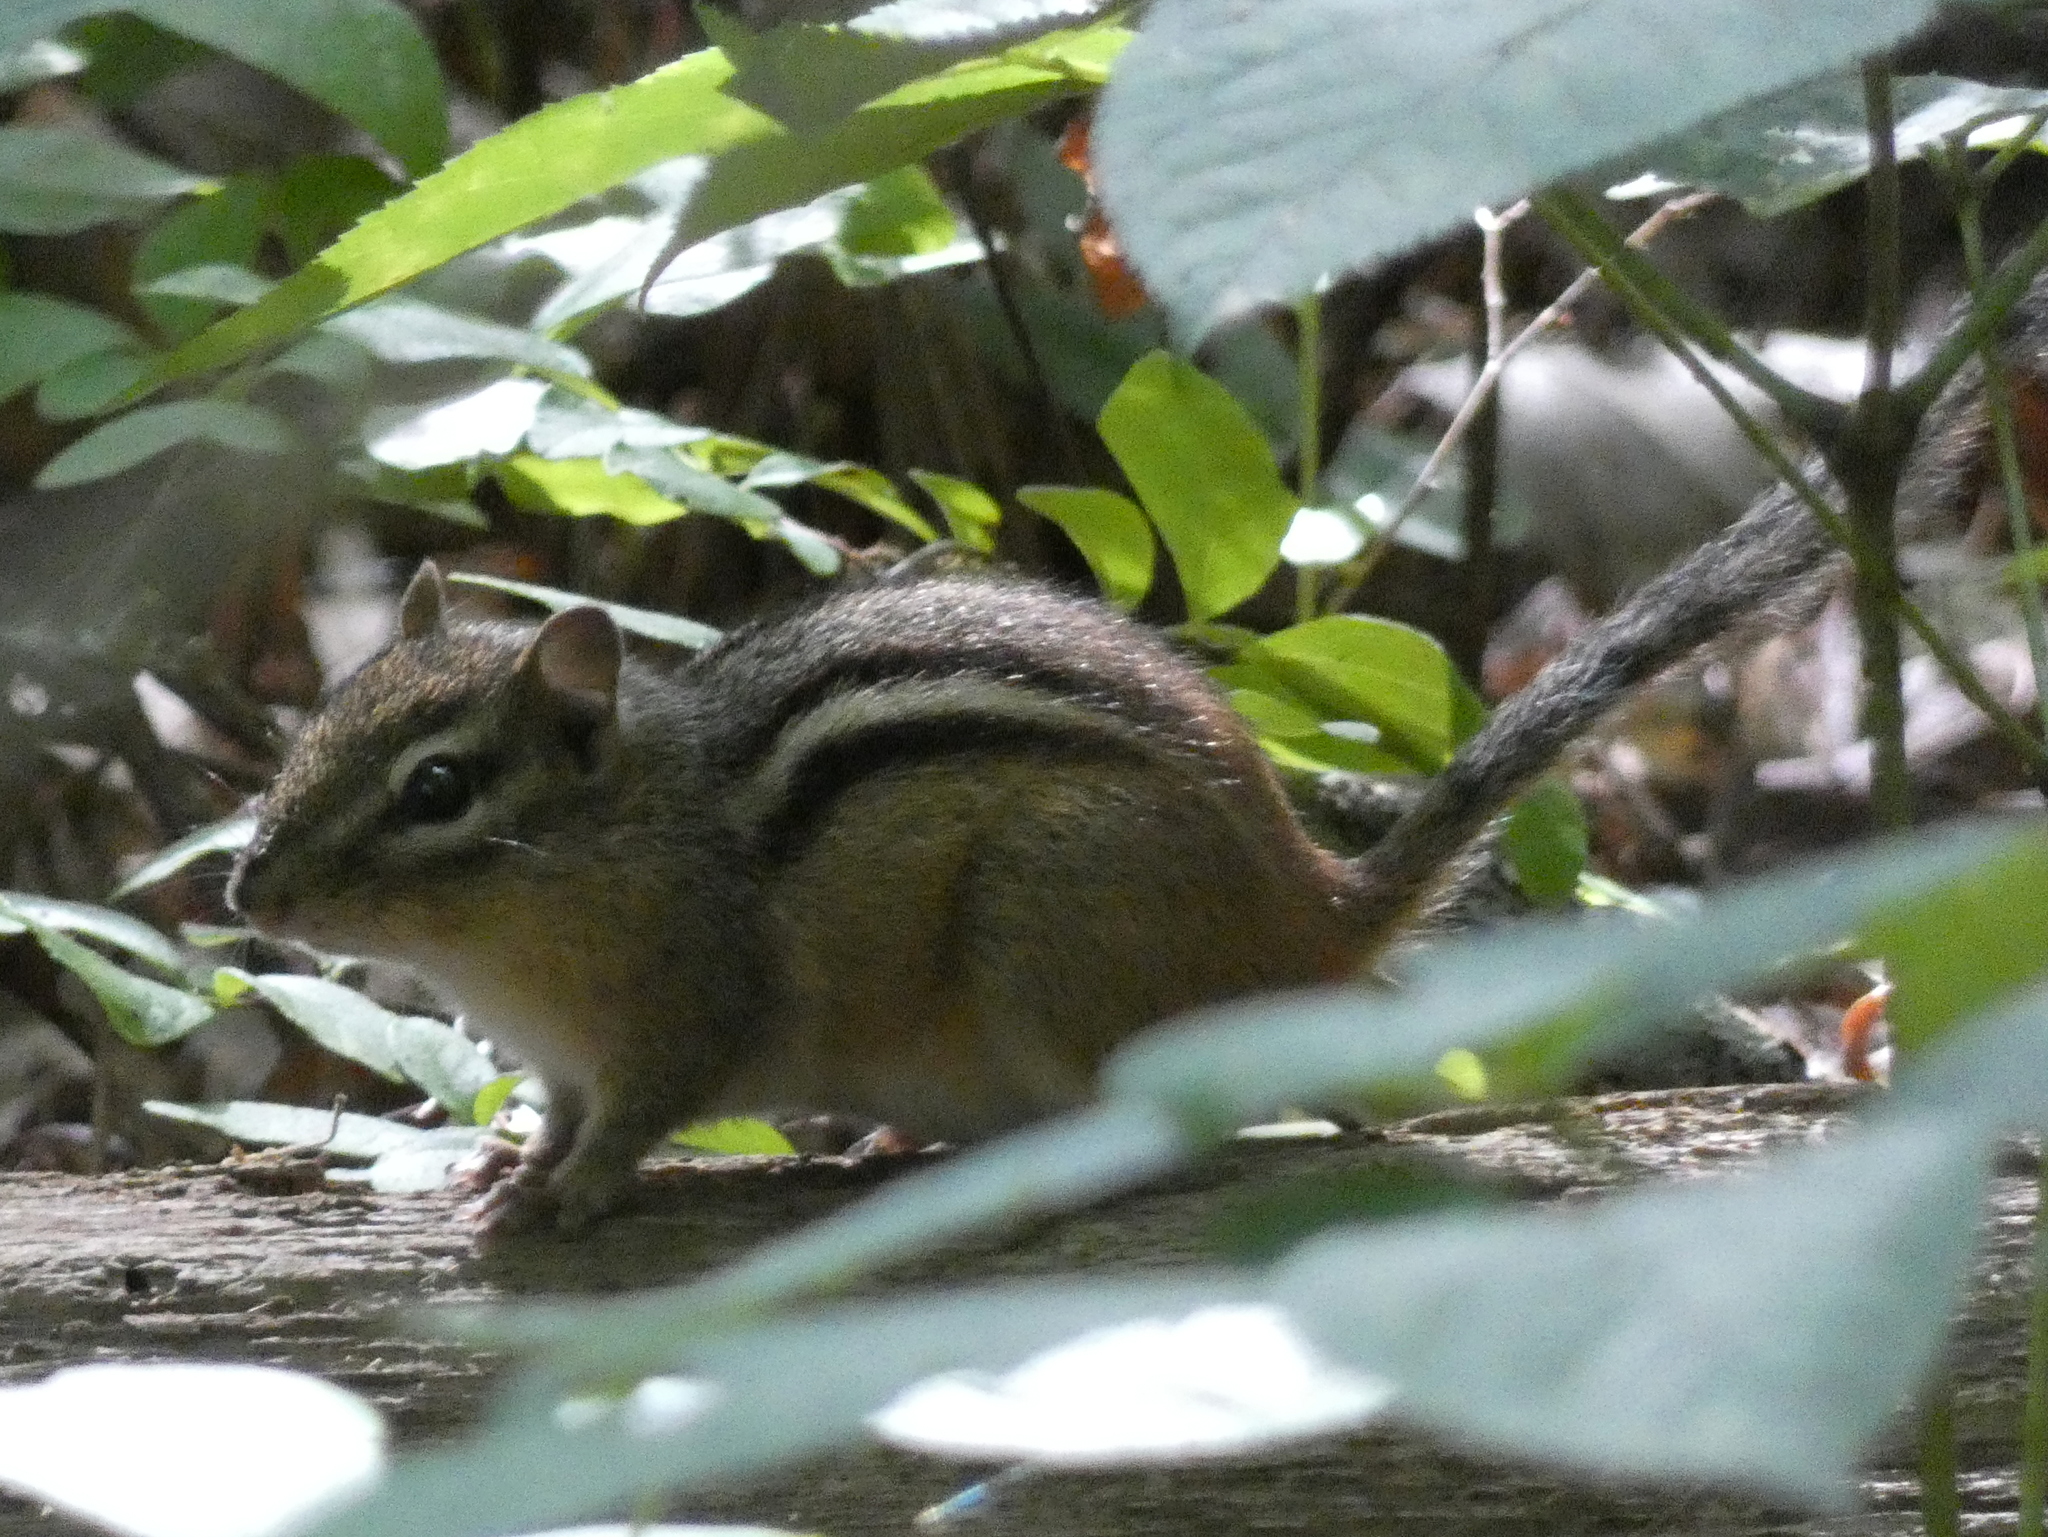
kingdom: Animalia
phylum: Chordata
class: Mammalia
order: Rodentia
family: Sciuridae
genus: Tamias
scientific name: Tamias striatus
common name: Eastern chipmunk
